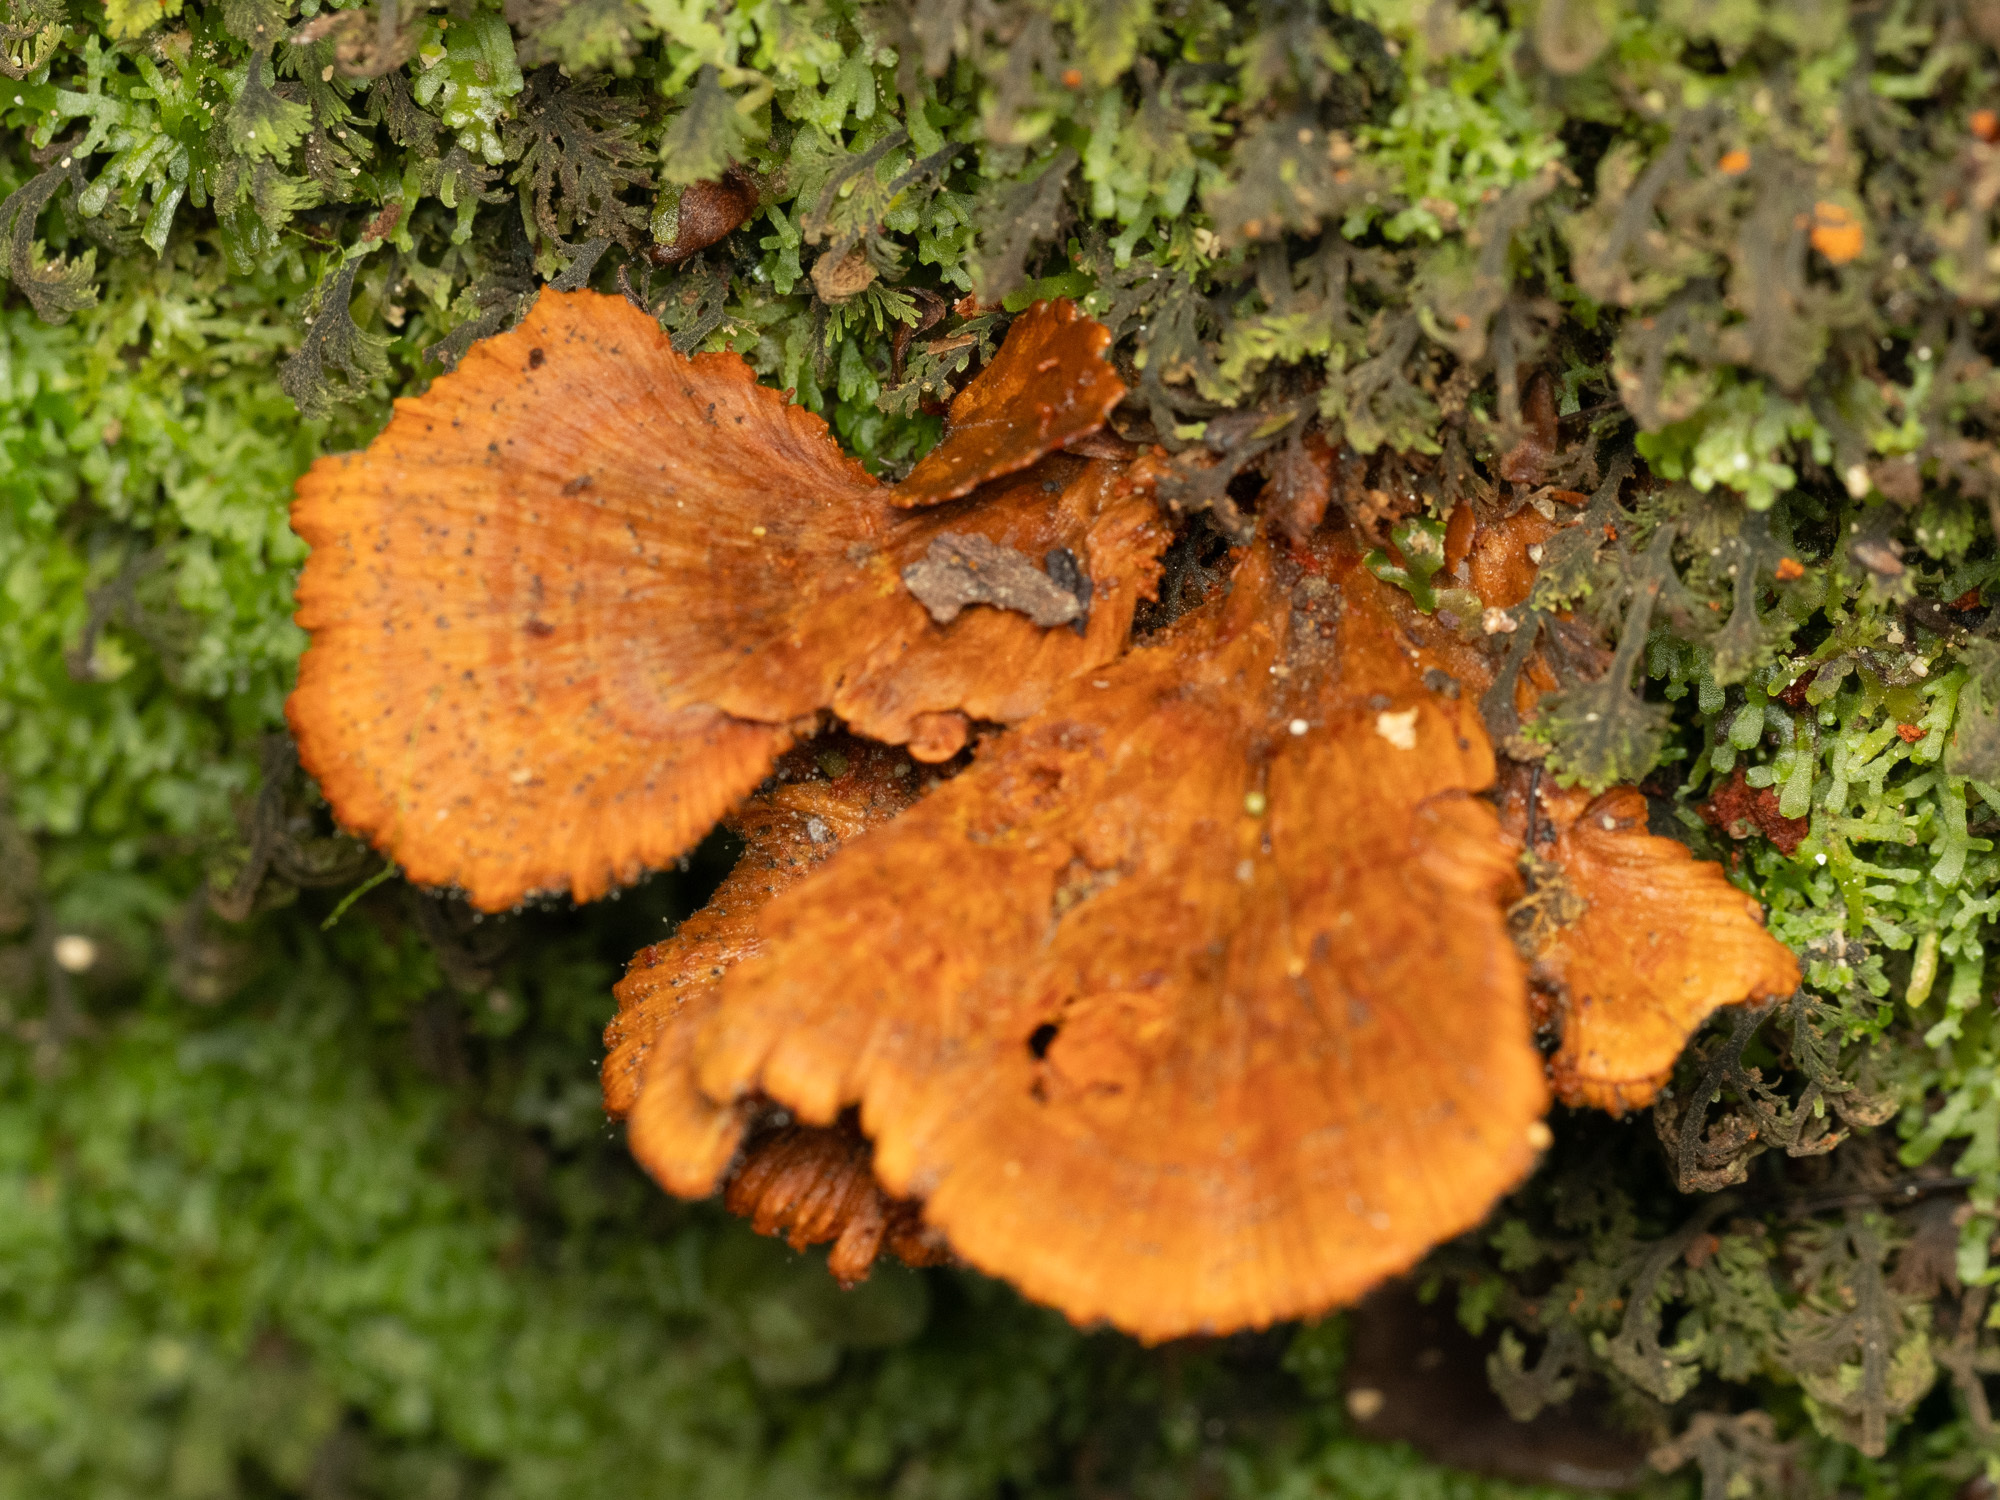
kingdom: Fungi
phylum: Basidiomycota
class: Agaricomycetes
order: Polyporales
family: Meripilaceae
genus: Rigidoporus
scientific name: Rigidoporus aureofulvus
